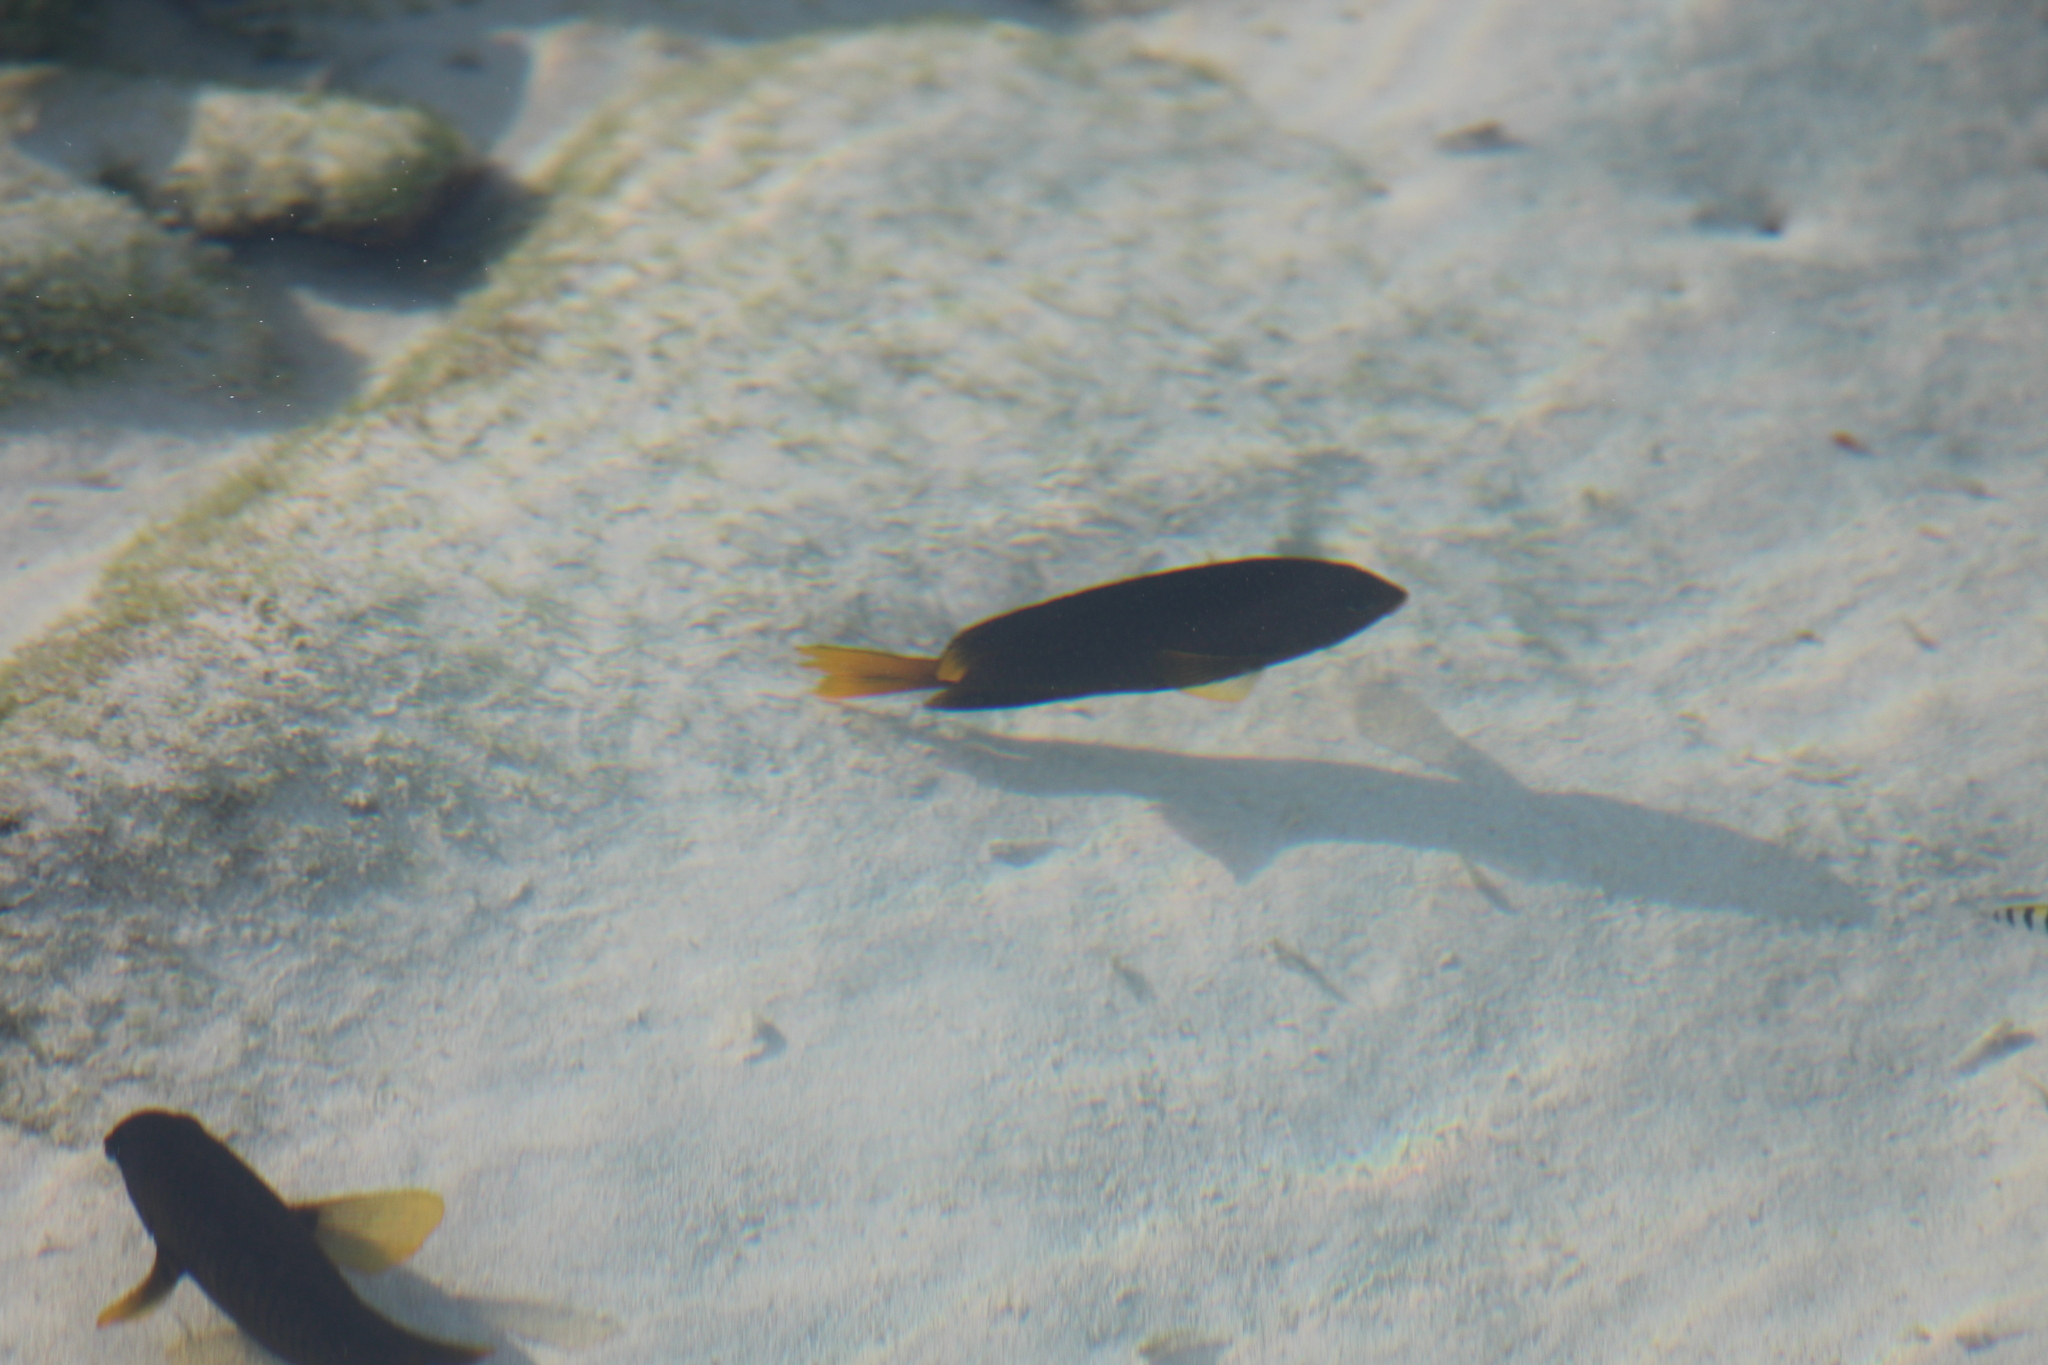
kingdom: Animalia
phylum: Chordata
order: Perciformes
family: Pomacentridae
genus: Stegastes
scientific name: Stegastes arcifrons
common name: Galapagos gregory
